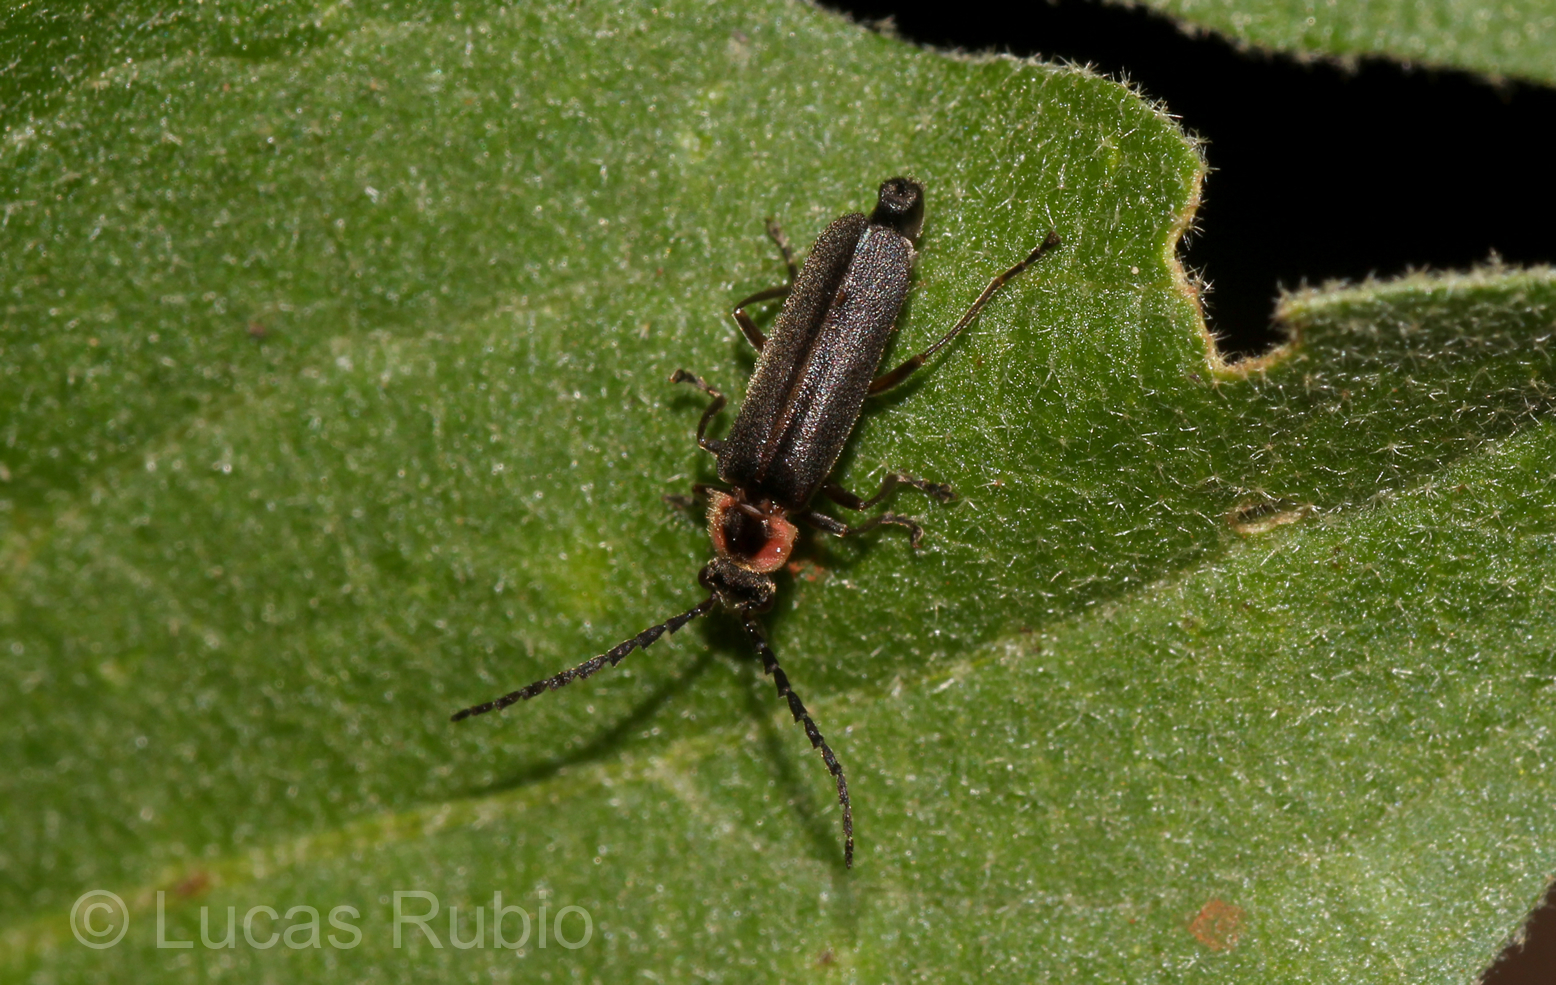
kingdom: Animalia
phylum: Arthropoda
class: Insecta
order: Coleoptera
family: Cantharidae
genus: Discodon
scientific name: Discodon
